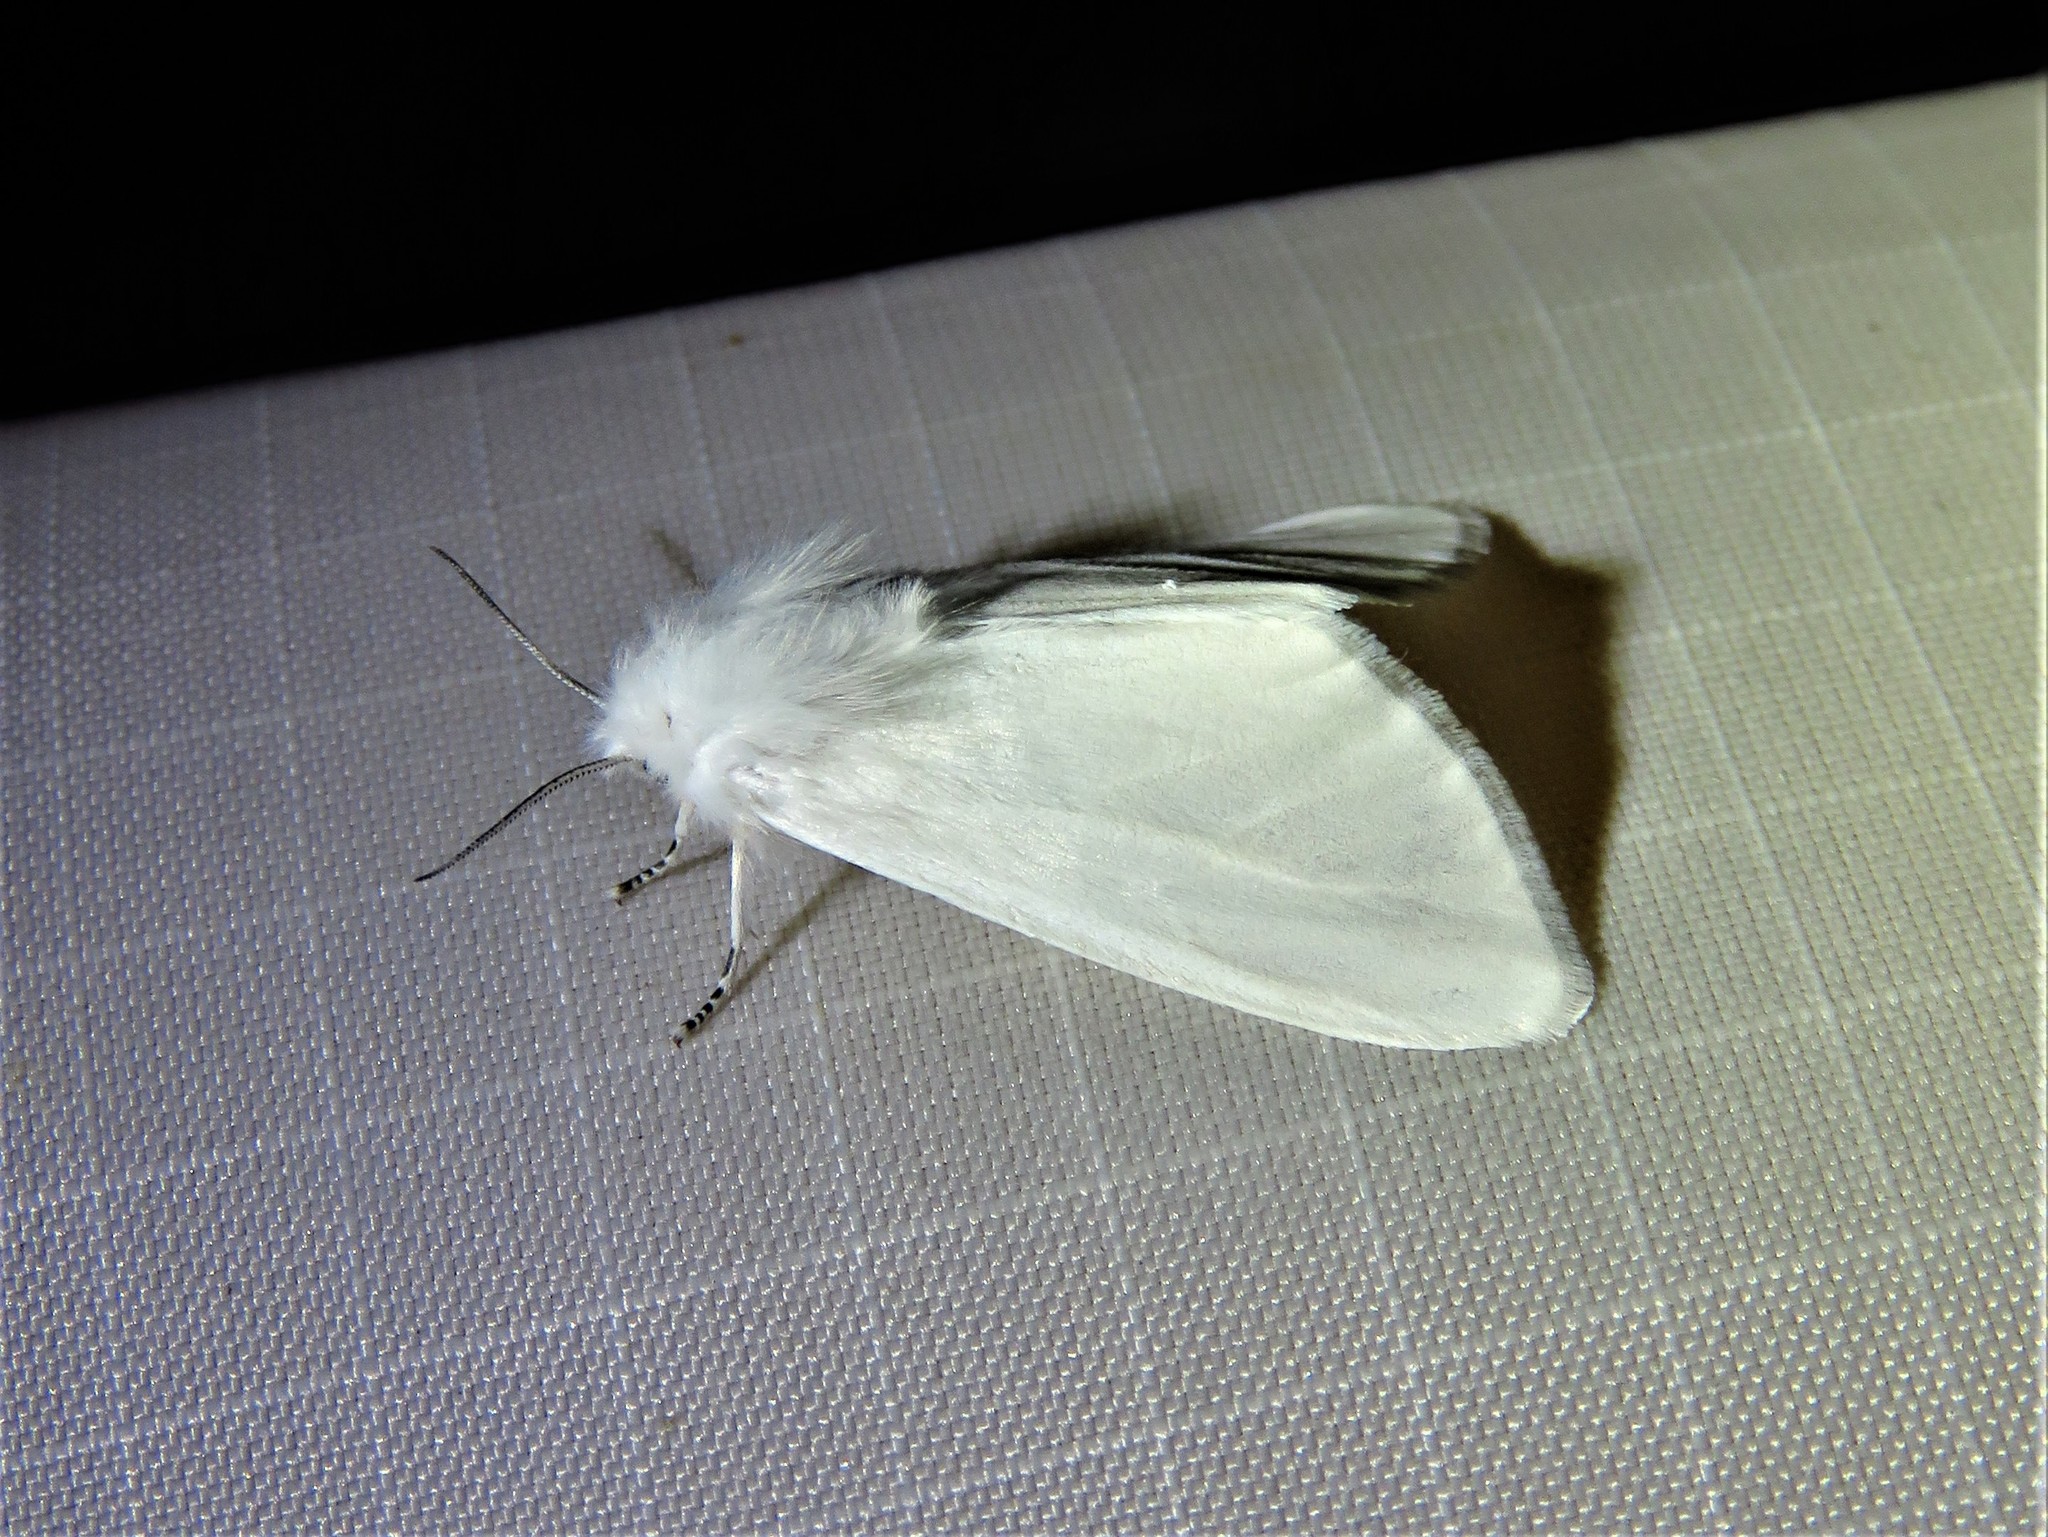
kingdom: Animalia
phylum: Arthropoda
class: Insecta
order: Lepidoptera
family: Erebidae
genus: Hyphantria
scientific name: Hyphantria cunea
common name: American white moth
